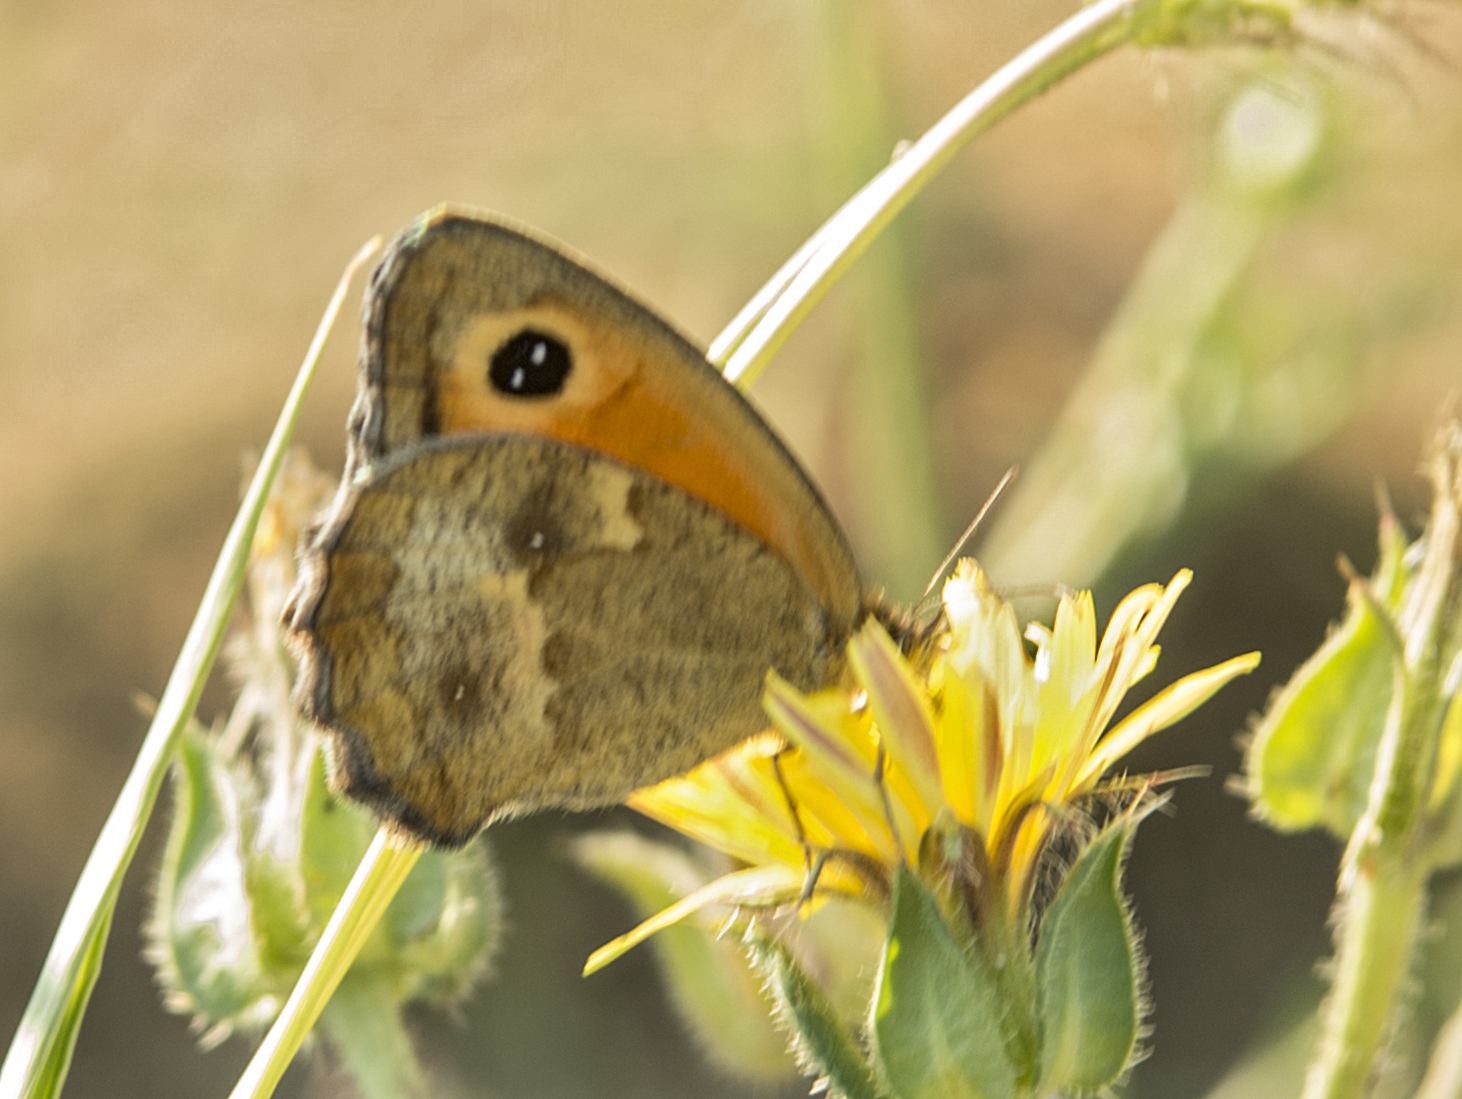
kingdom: Animalia
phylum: Arthropoda
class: Insecta
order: Lepidoptera
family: Nymphalidae
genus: Pyronia
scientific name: Pyronia tithonus
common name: Gatekeeper
